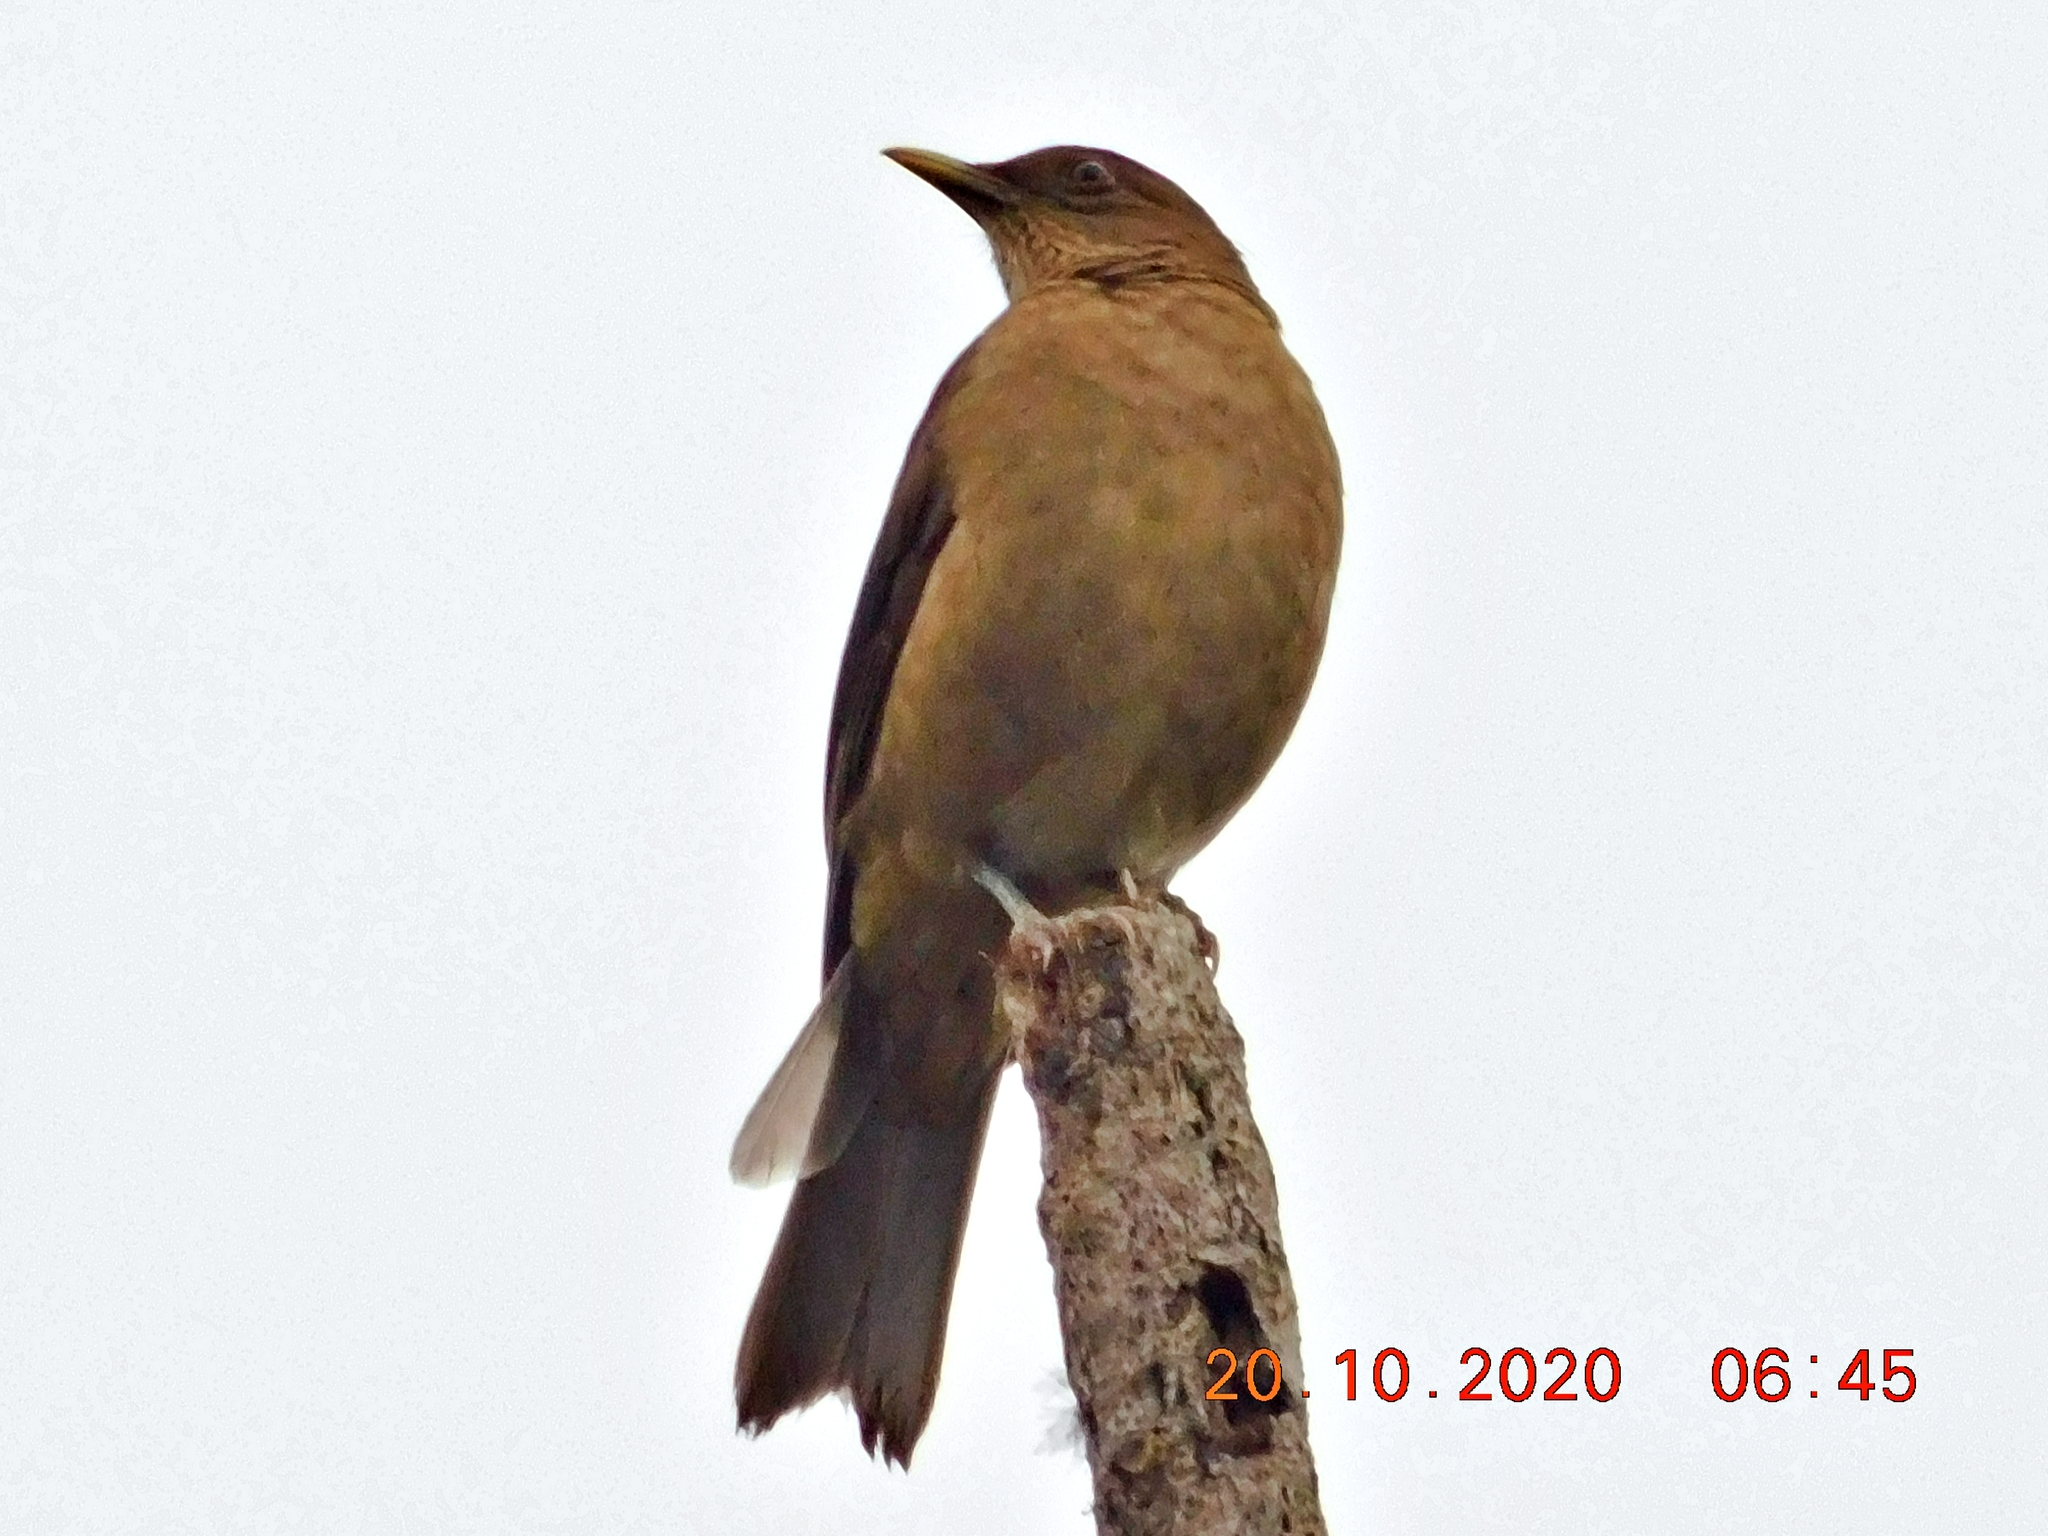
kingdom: Animalia
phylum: Chordata
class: Aves
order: Passeriformes
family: Turdidae
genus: Turdus
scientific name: Turdus grayi
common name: Clay-colored thrush
